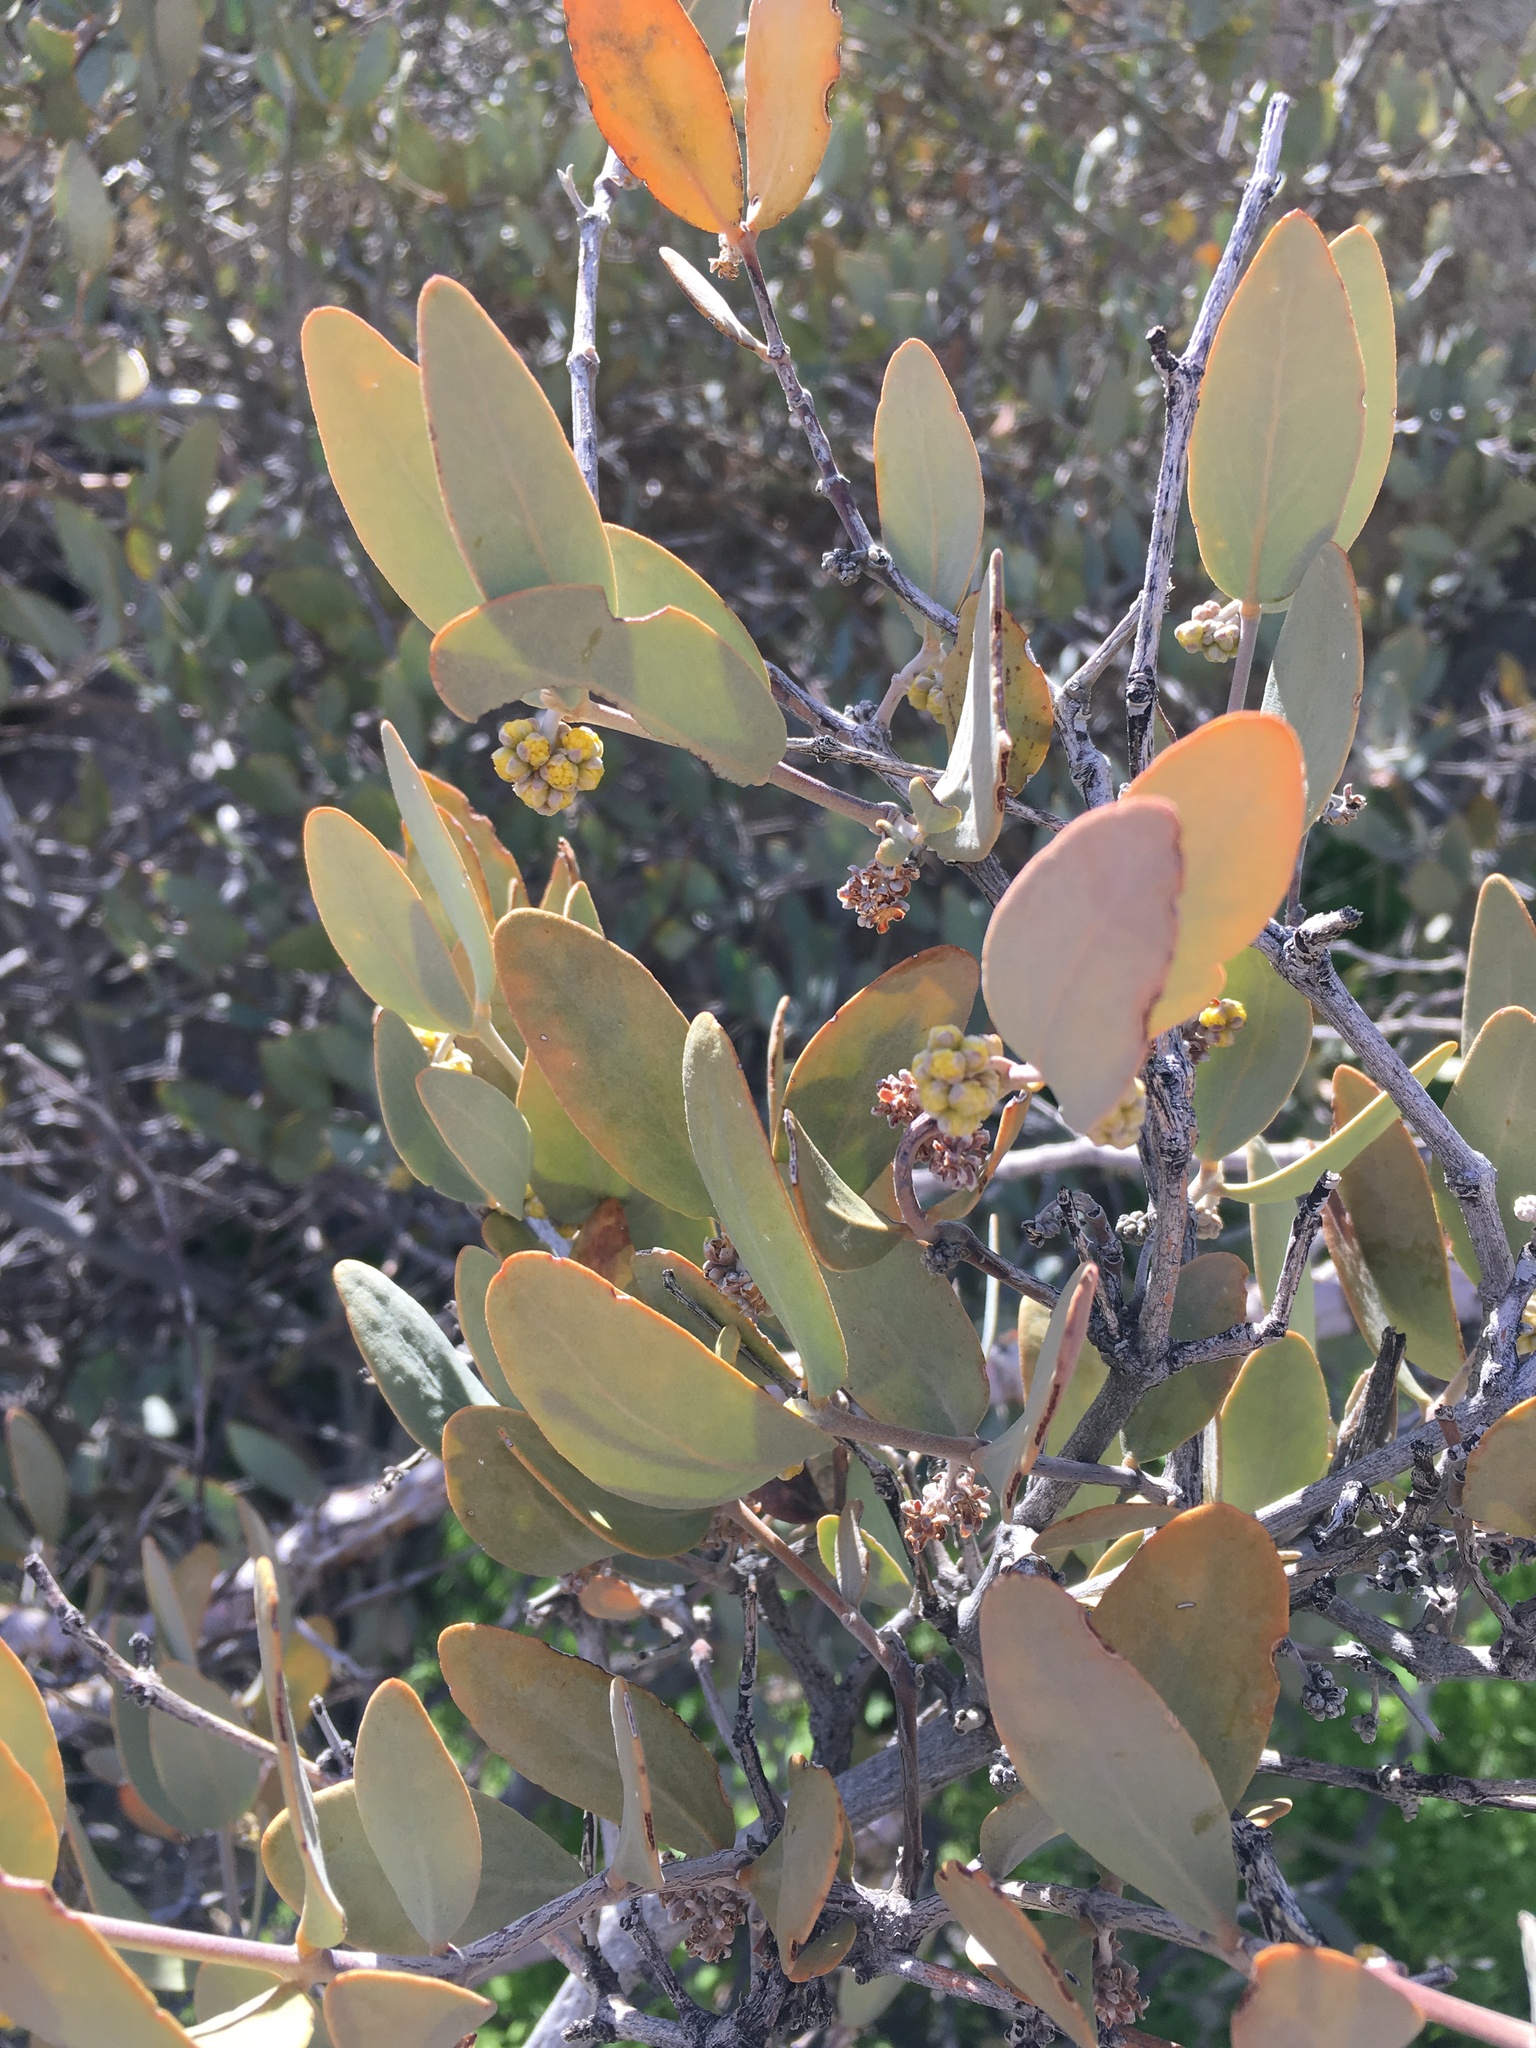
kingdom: Plantae
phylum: Tracheophyta
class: Magnoliopsida
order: Caryophyllales
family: Simmondsiaceae
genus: Simmondsia
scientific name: Simmondsia chinensis
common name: Jojoba
